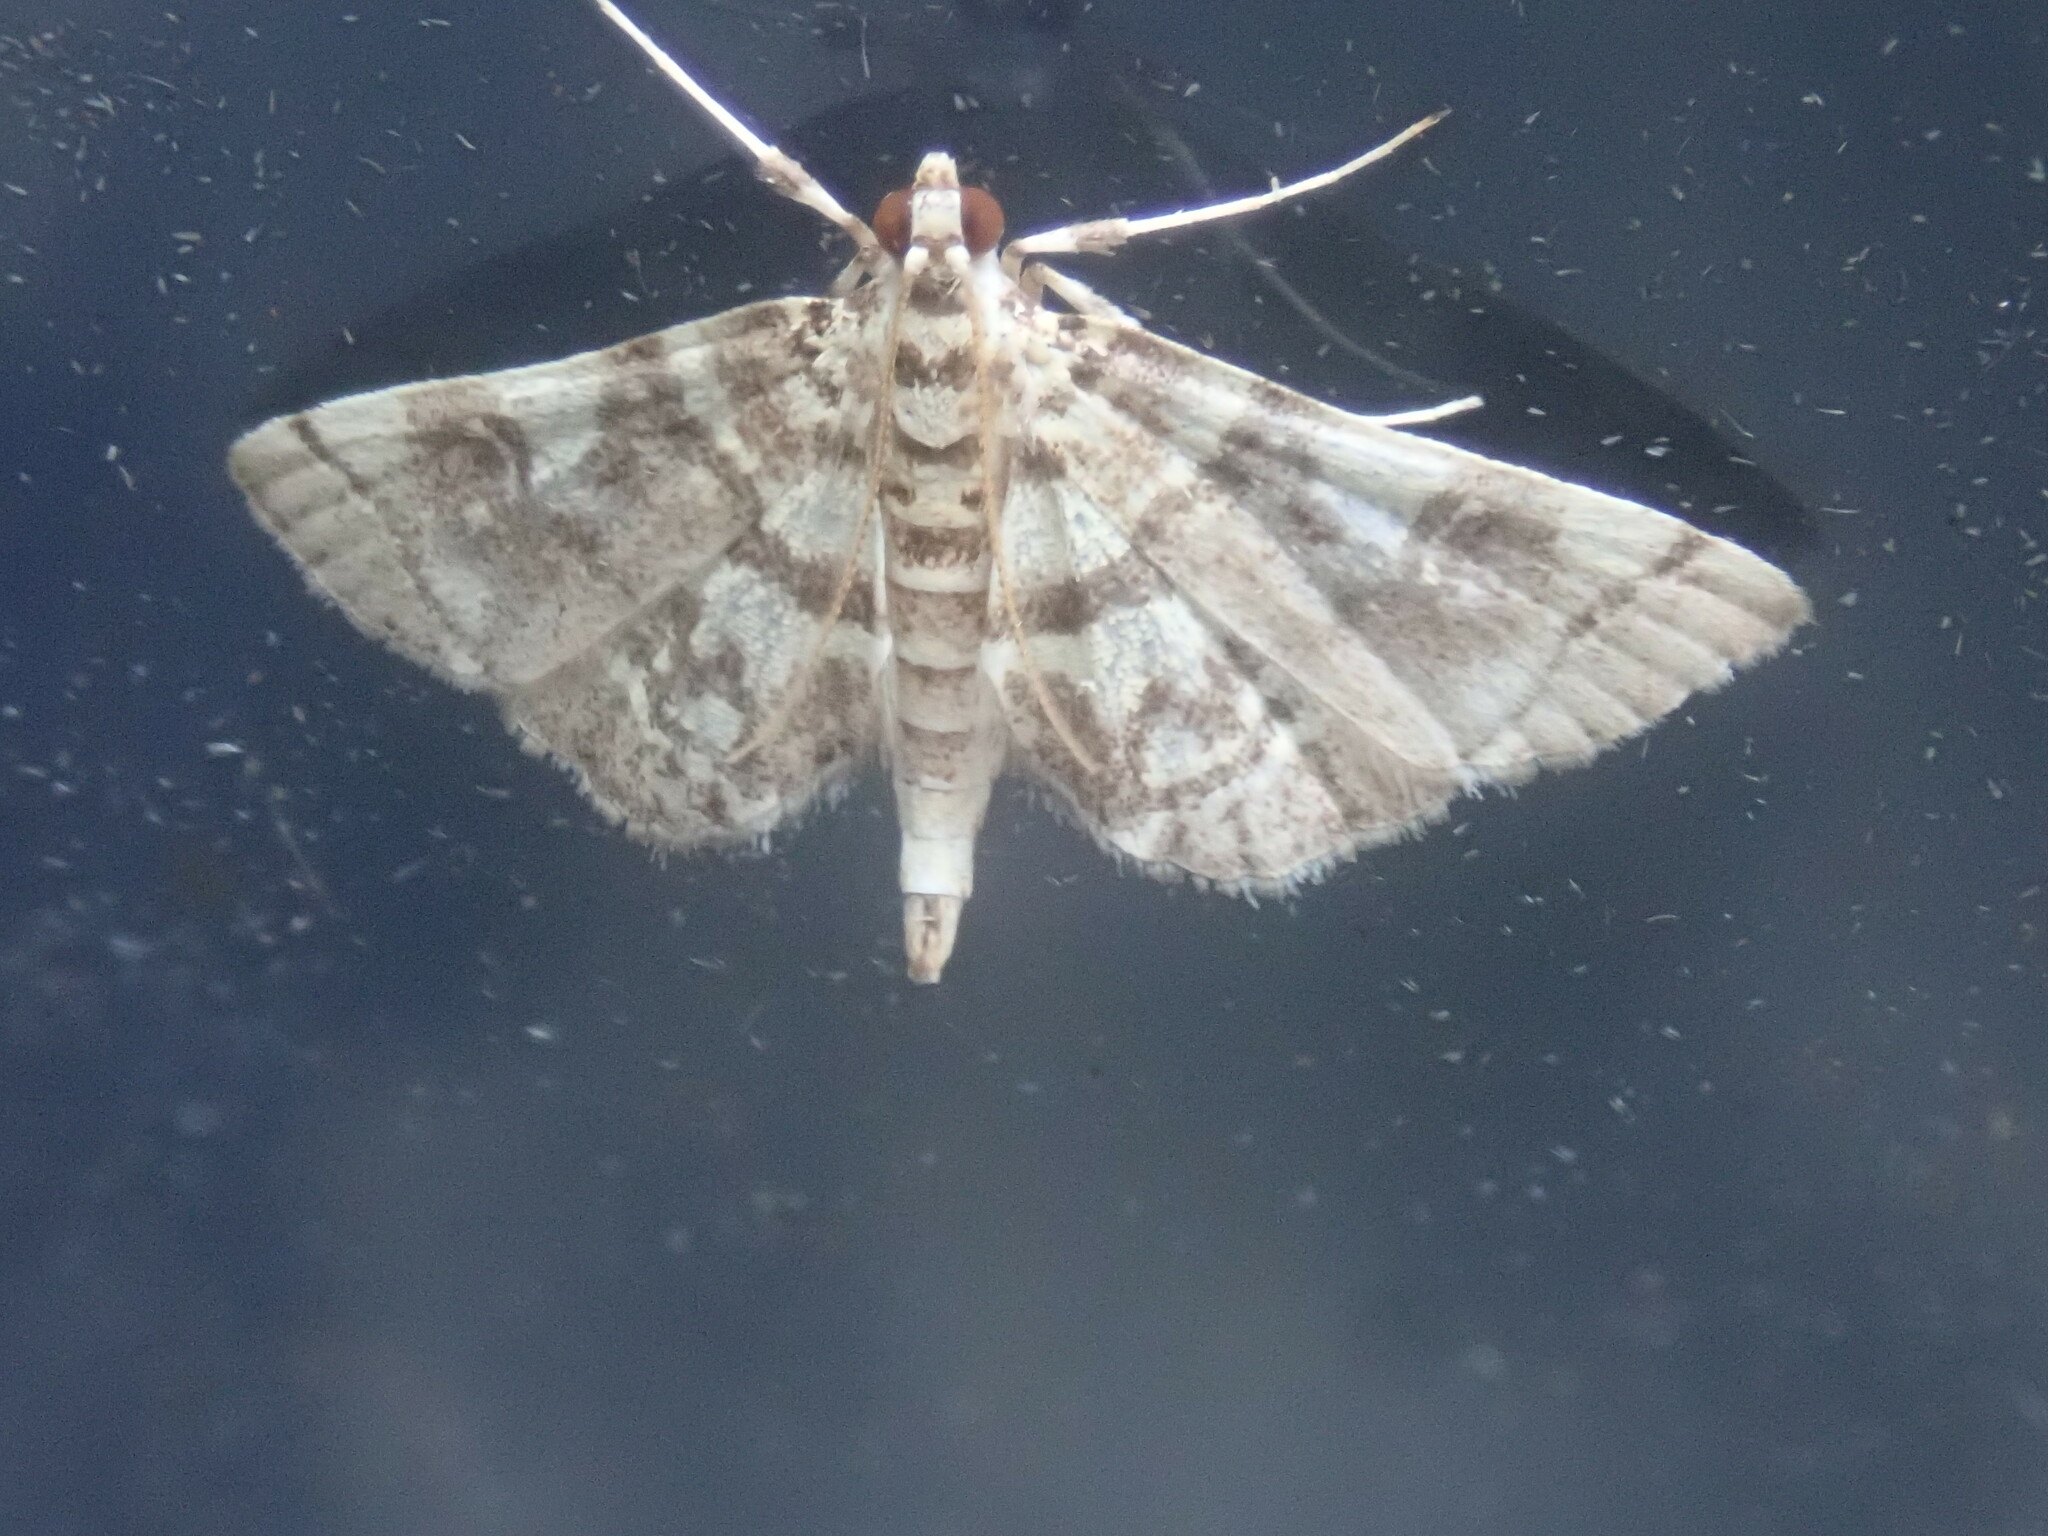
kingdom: Animalia
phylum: Arthropoda
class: Insecta
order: Lepidoptera
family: Crambidae
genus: Apogeshna
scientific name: Apogeshna stenialis
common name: Checkered apogeshna moth
